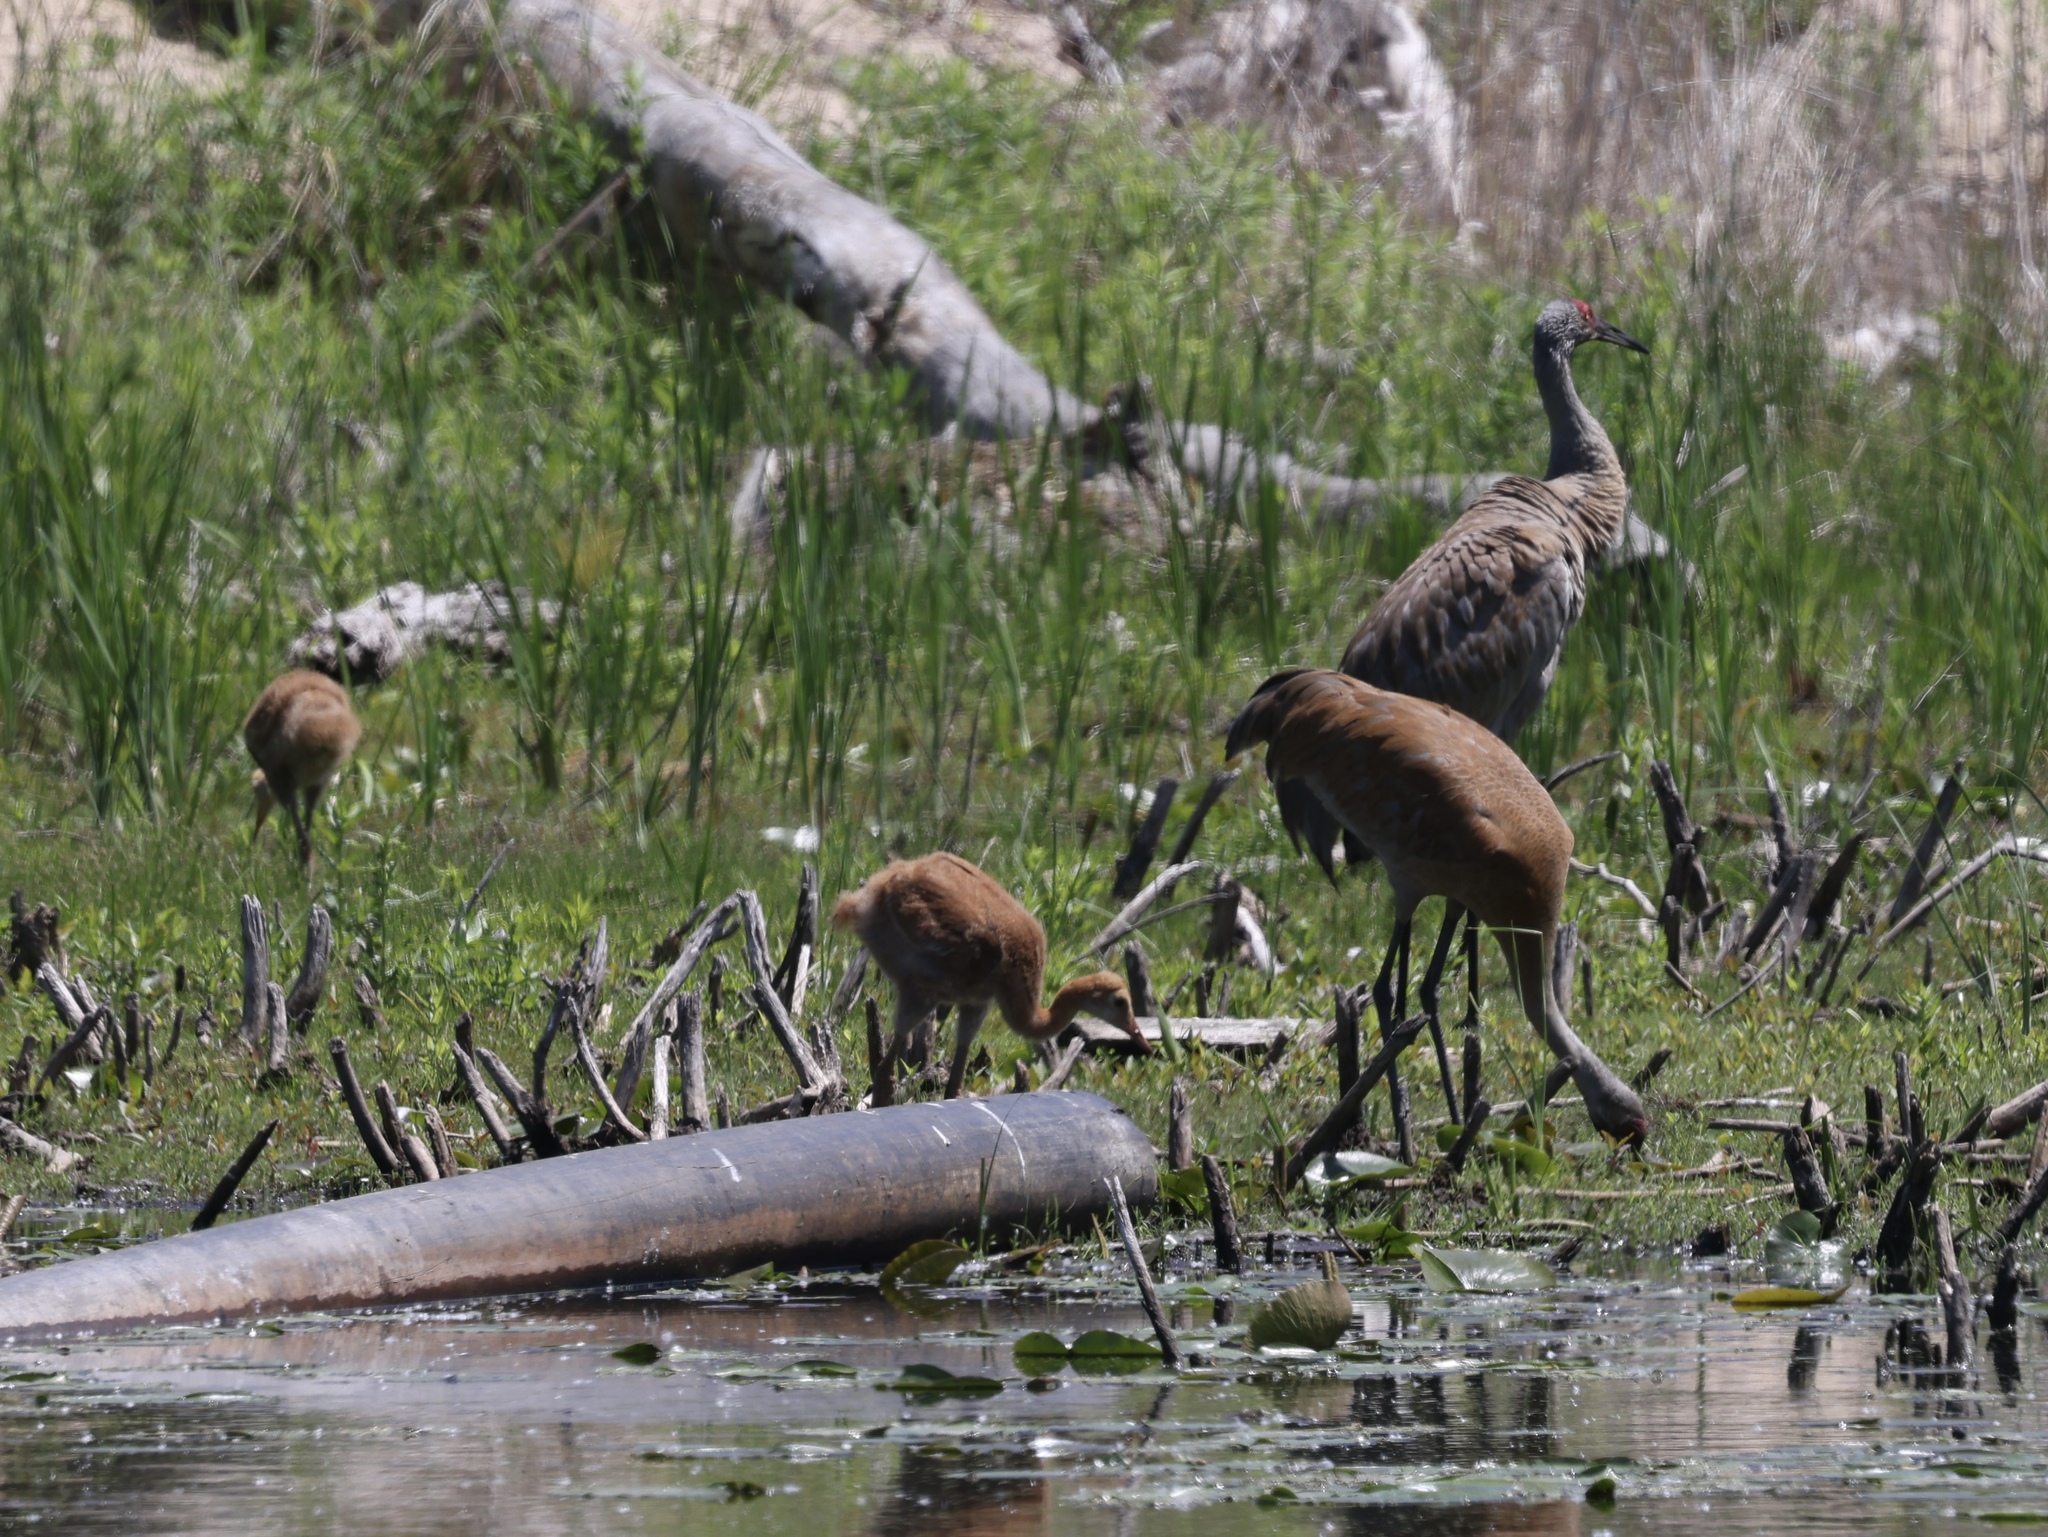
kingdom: Animalia
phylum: Chordata
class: Aves
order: Gruiformes
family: Gruidae
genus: Grus
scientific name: Grus canadensis
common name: Sandhill crane
